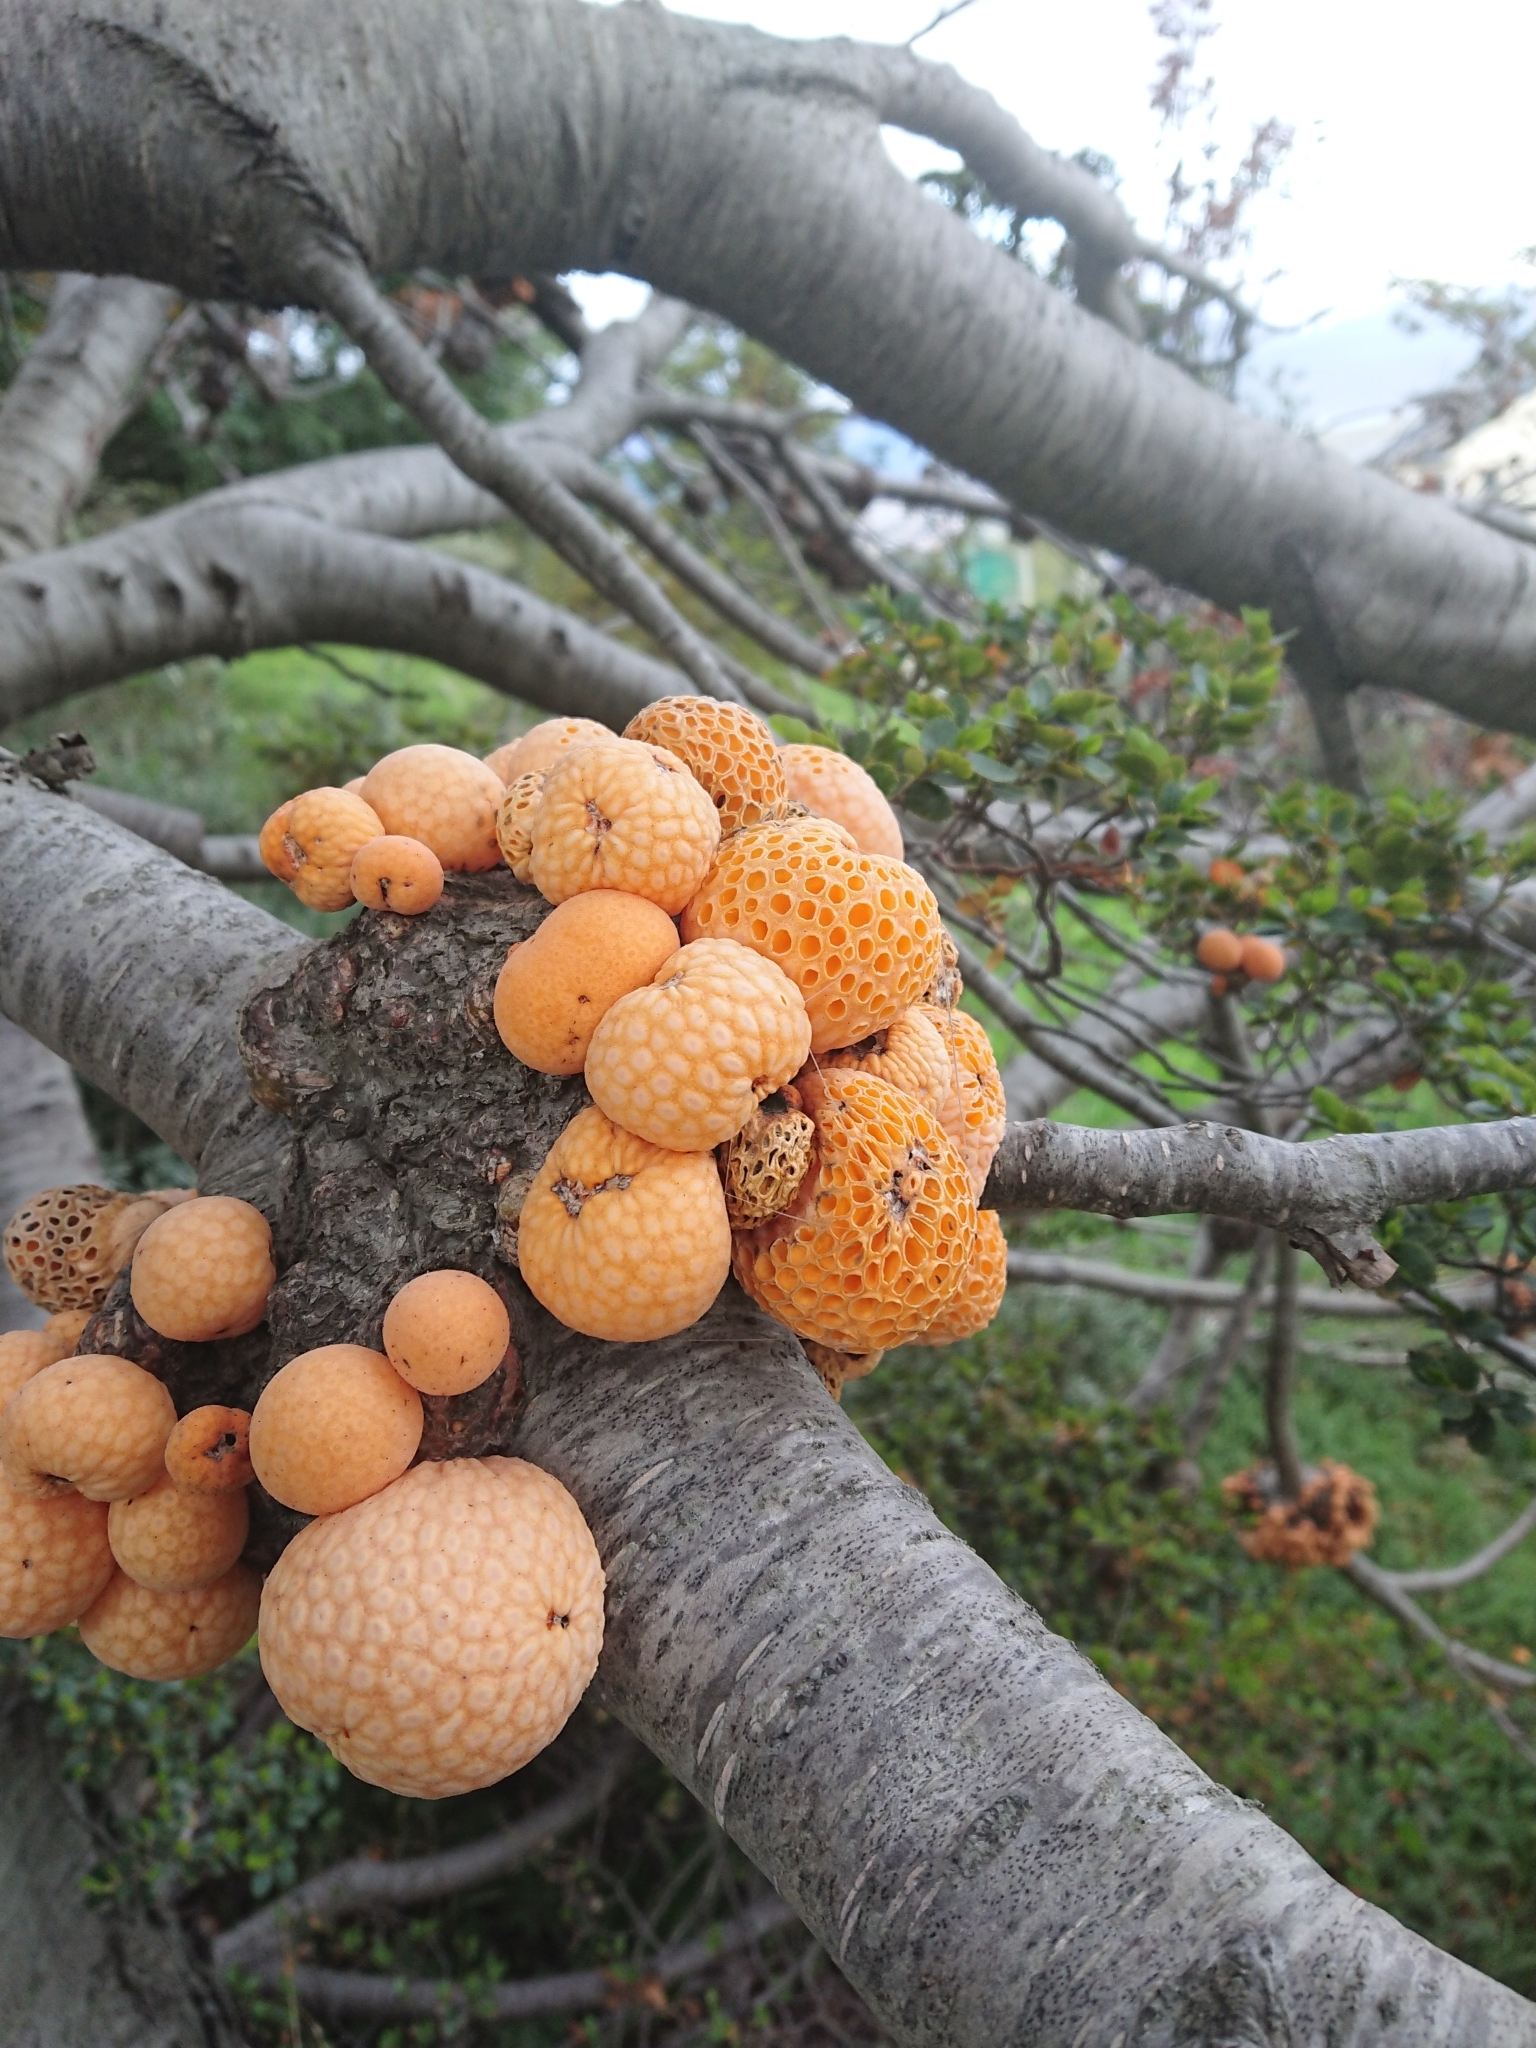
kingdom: Fungi
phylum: Ascomycota
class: Leotiomycetes
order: Cyttariales
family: Cyttariaceae
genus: Cyttaria
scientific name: Cyttaria hariotii
